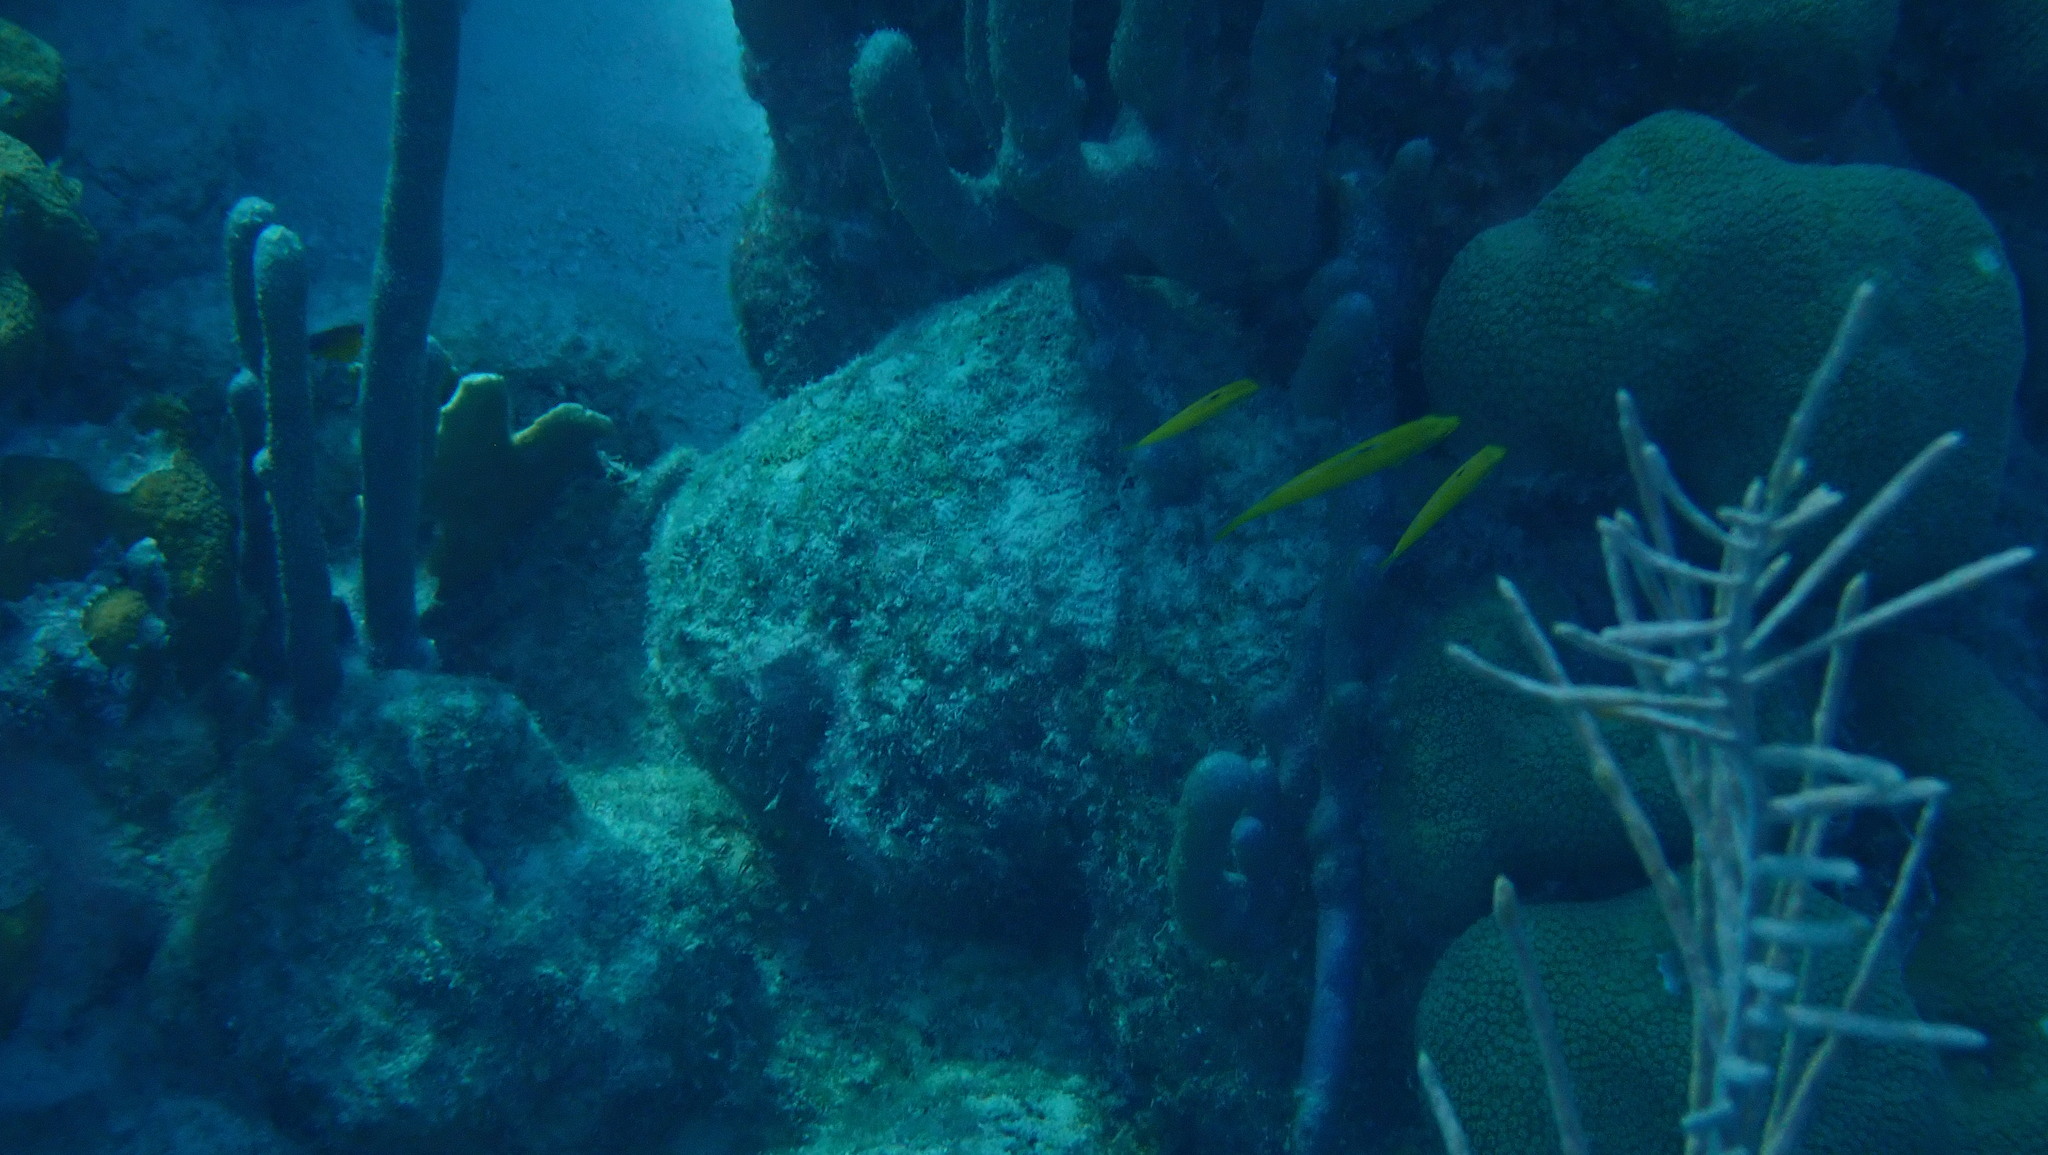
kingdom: Animalia
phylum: Chordata
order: Perciformes
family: Labridae
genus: Thalassoma
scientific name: Thalassoma bifasciatum
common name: Bluehead wrasse
